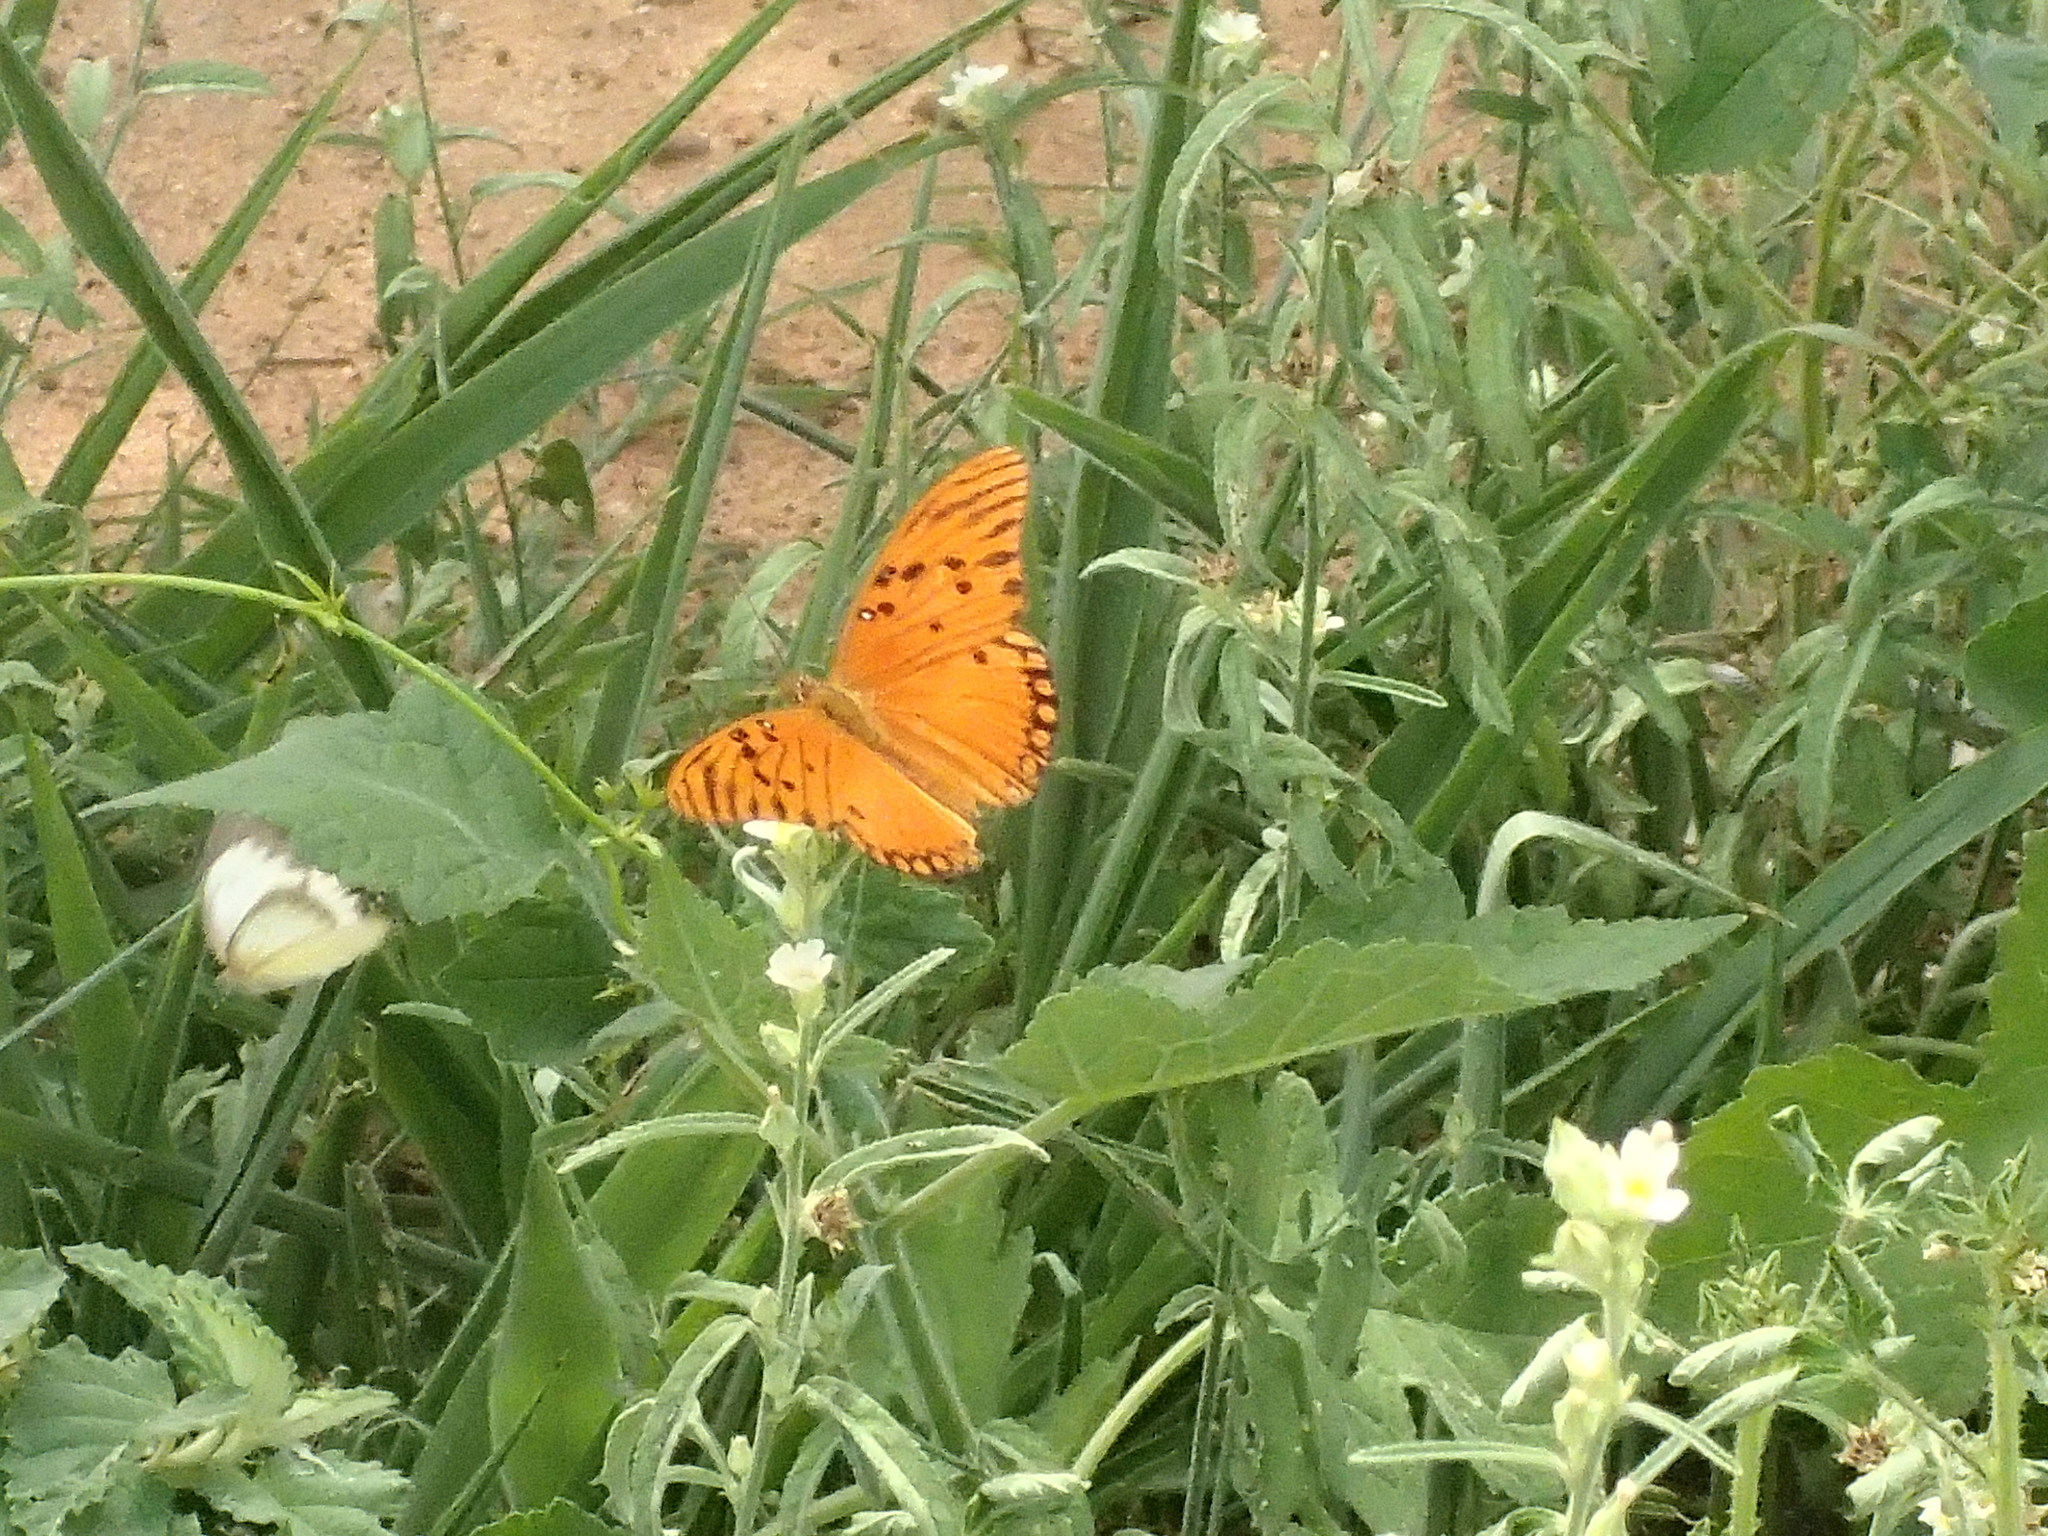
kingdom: Animalia
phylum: Arthropoda
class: Insecta
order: Lepidoptera
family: Nymphalidae
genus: Dione
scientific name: Dione vanillae
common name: Gulf fritillary
